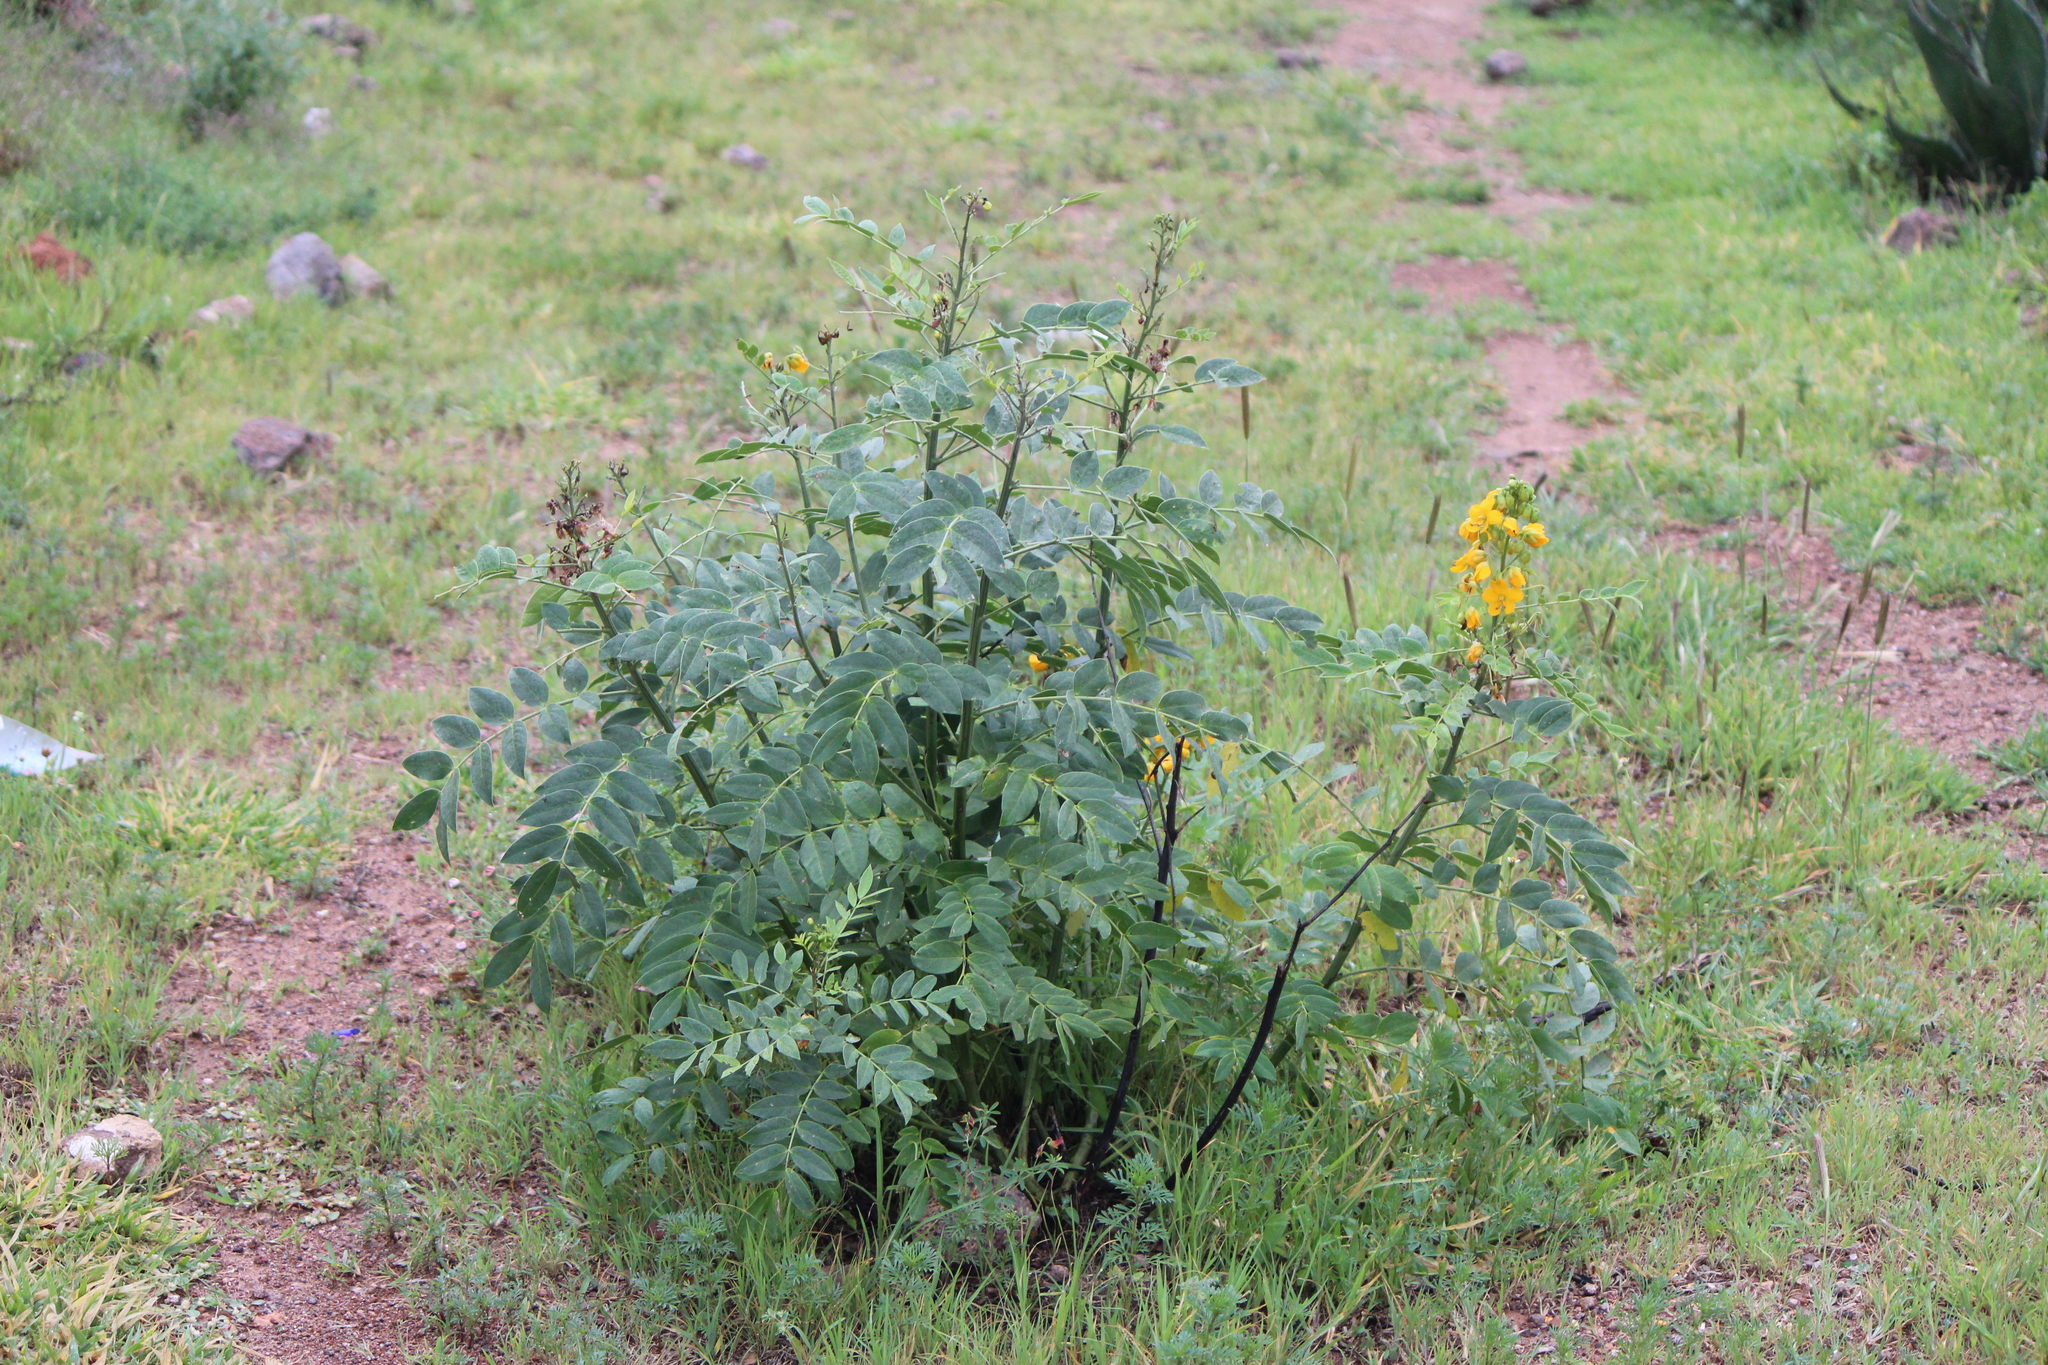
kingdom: Plantae
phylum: Tracheophyta
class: Magnoliopsida
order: Fabales
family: Fabaceae
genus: Senna
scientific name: Senna hirsuta
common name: Woolly senna
